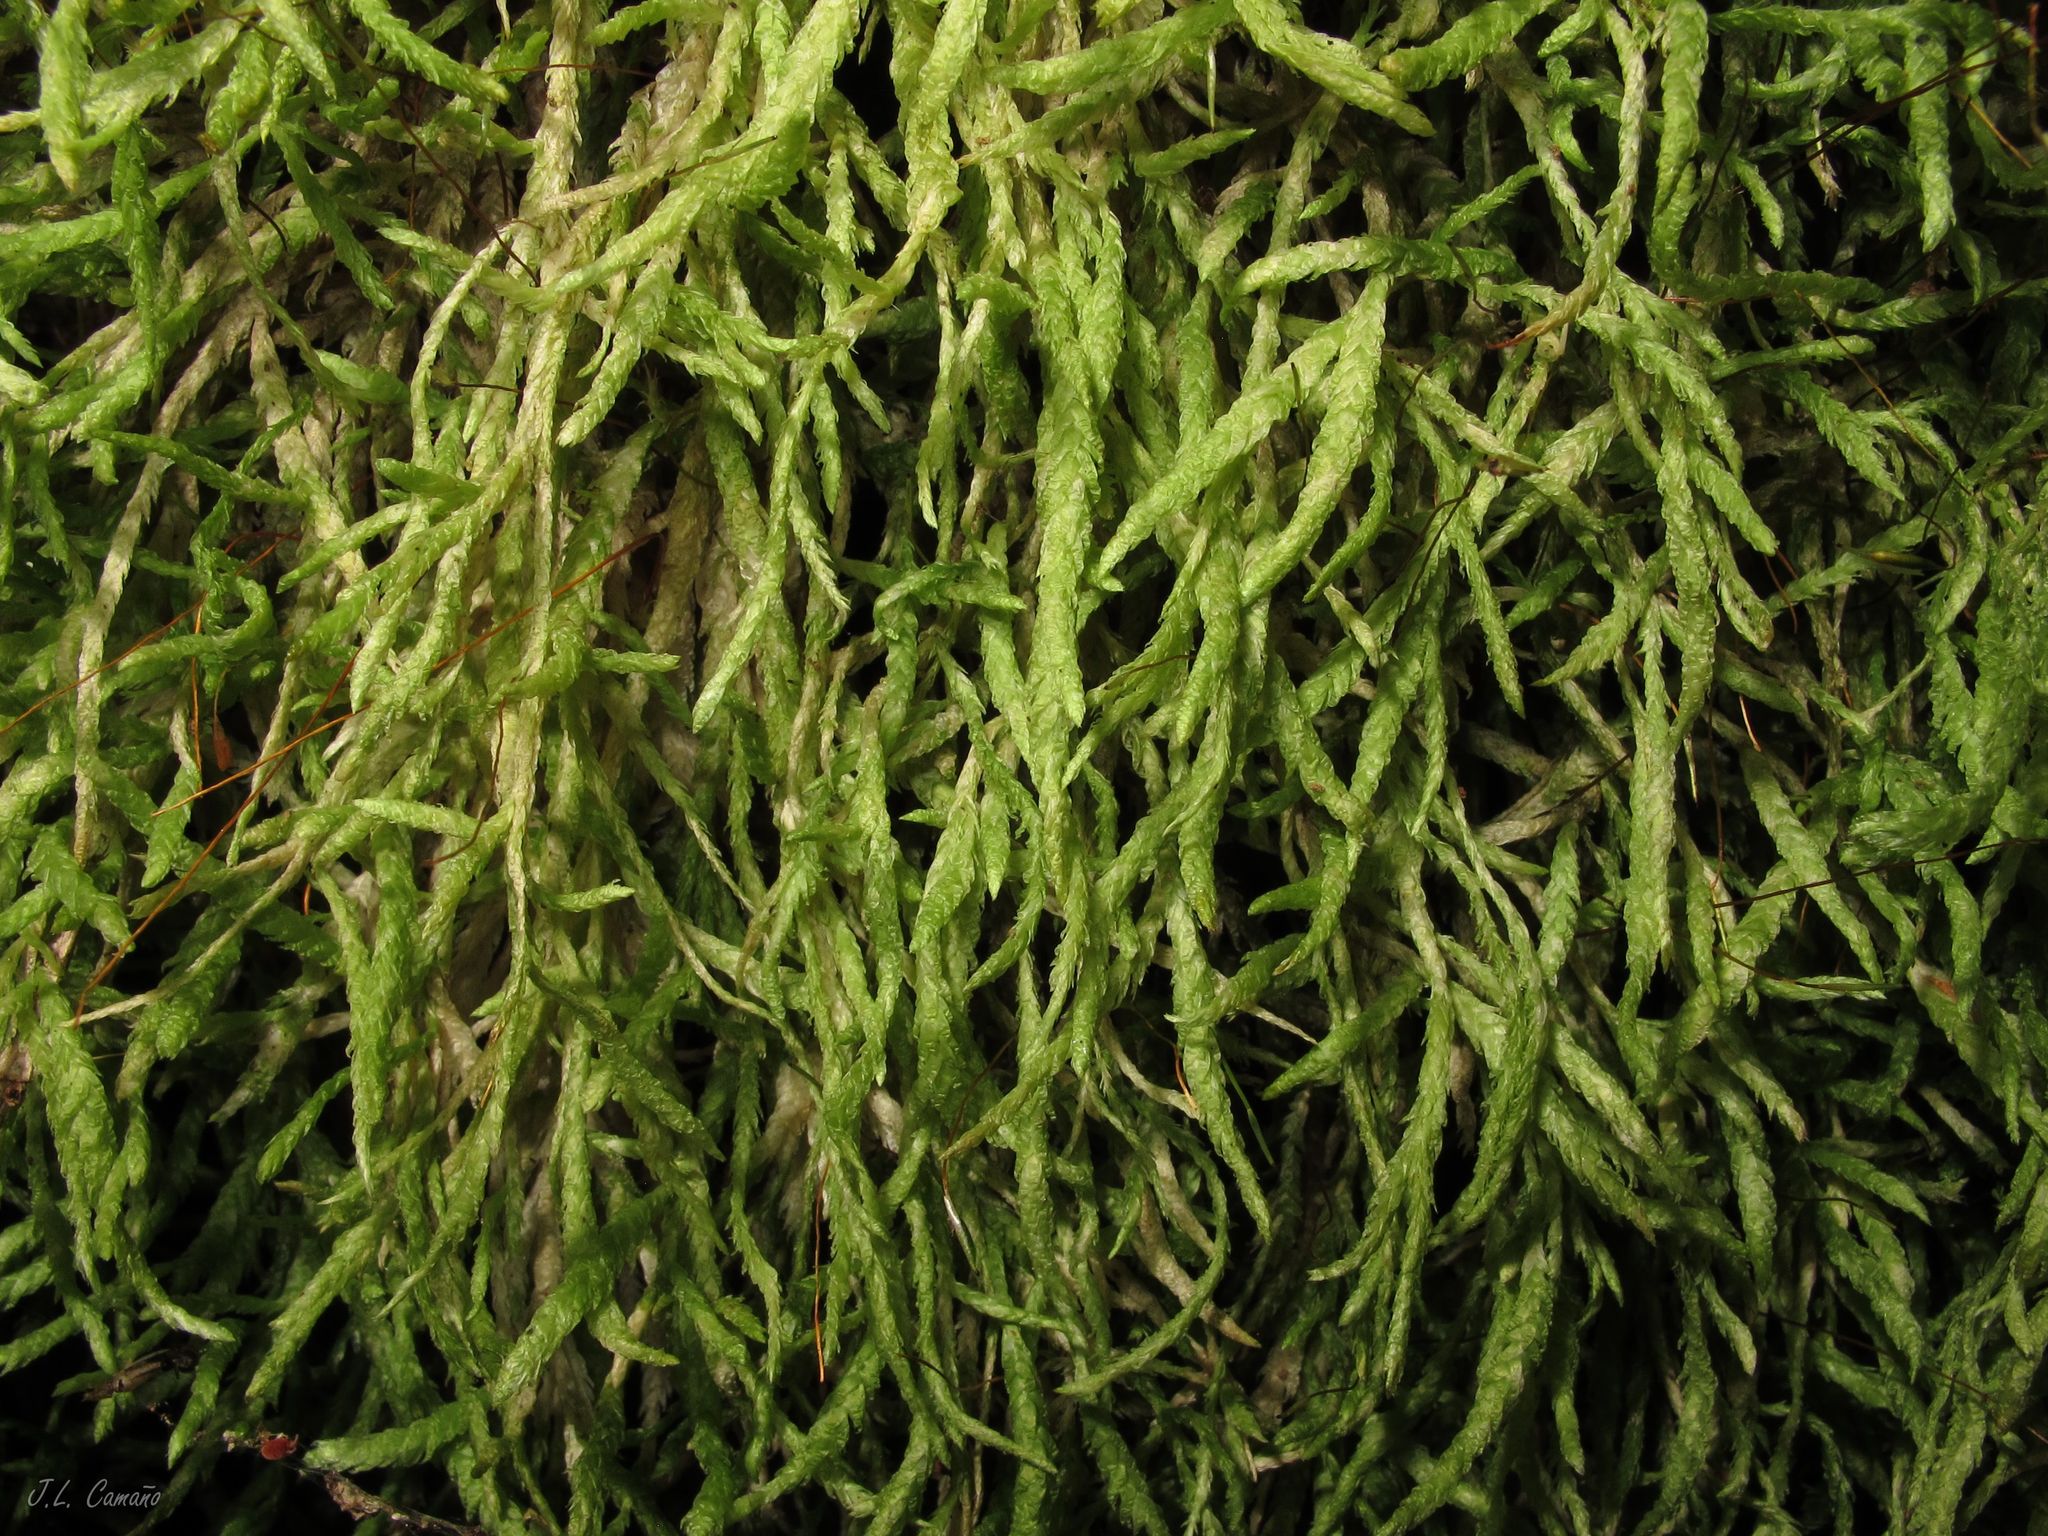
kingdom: Plantae
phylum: Bryophyta
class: Bryopsida
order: Hypnales
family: Plagiotheciaceae
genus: Plagiothecium
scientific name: Plagiothecium undulatum
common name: Waved silk-moss
